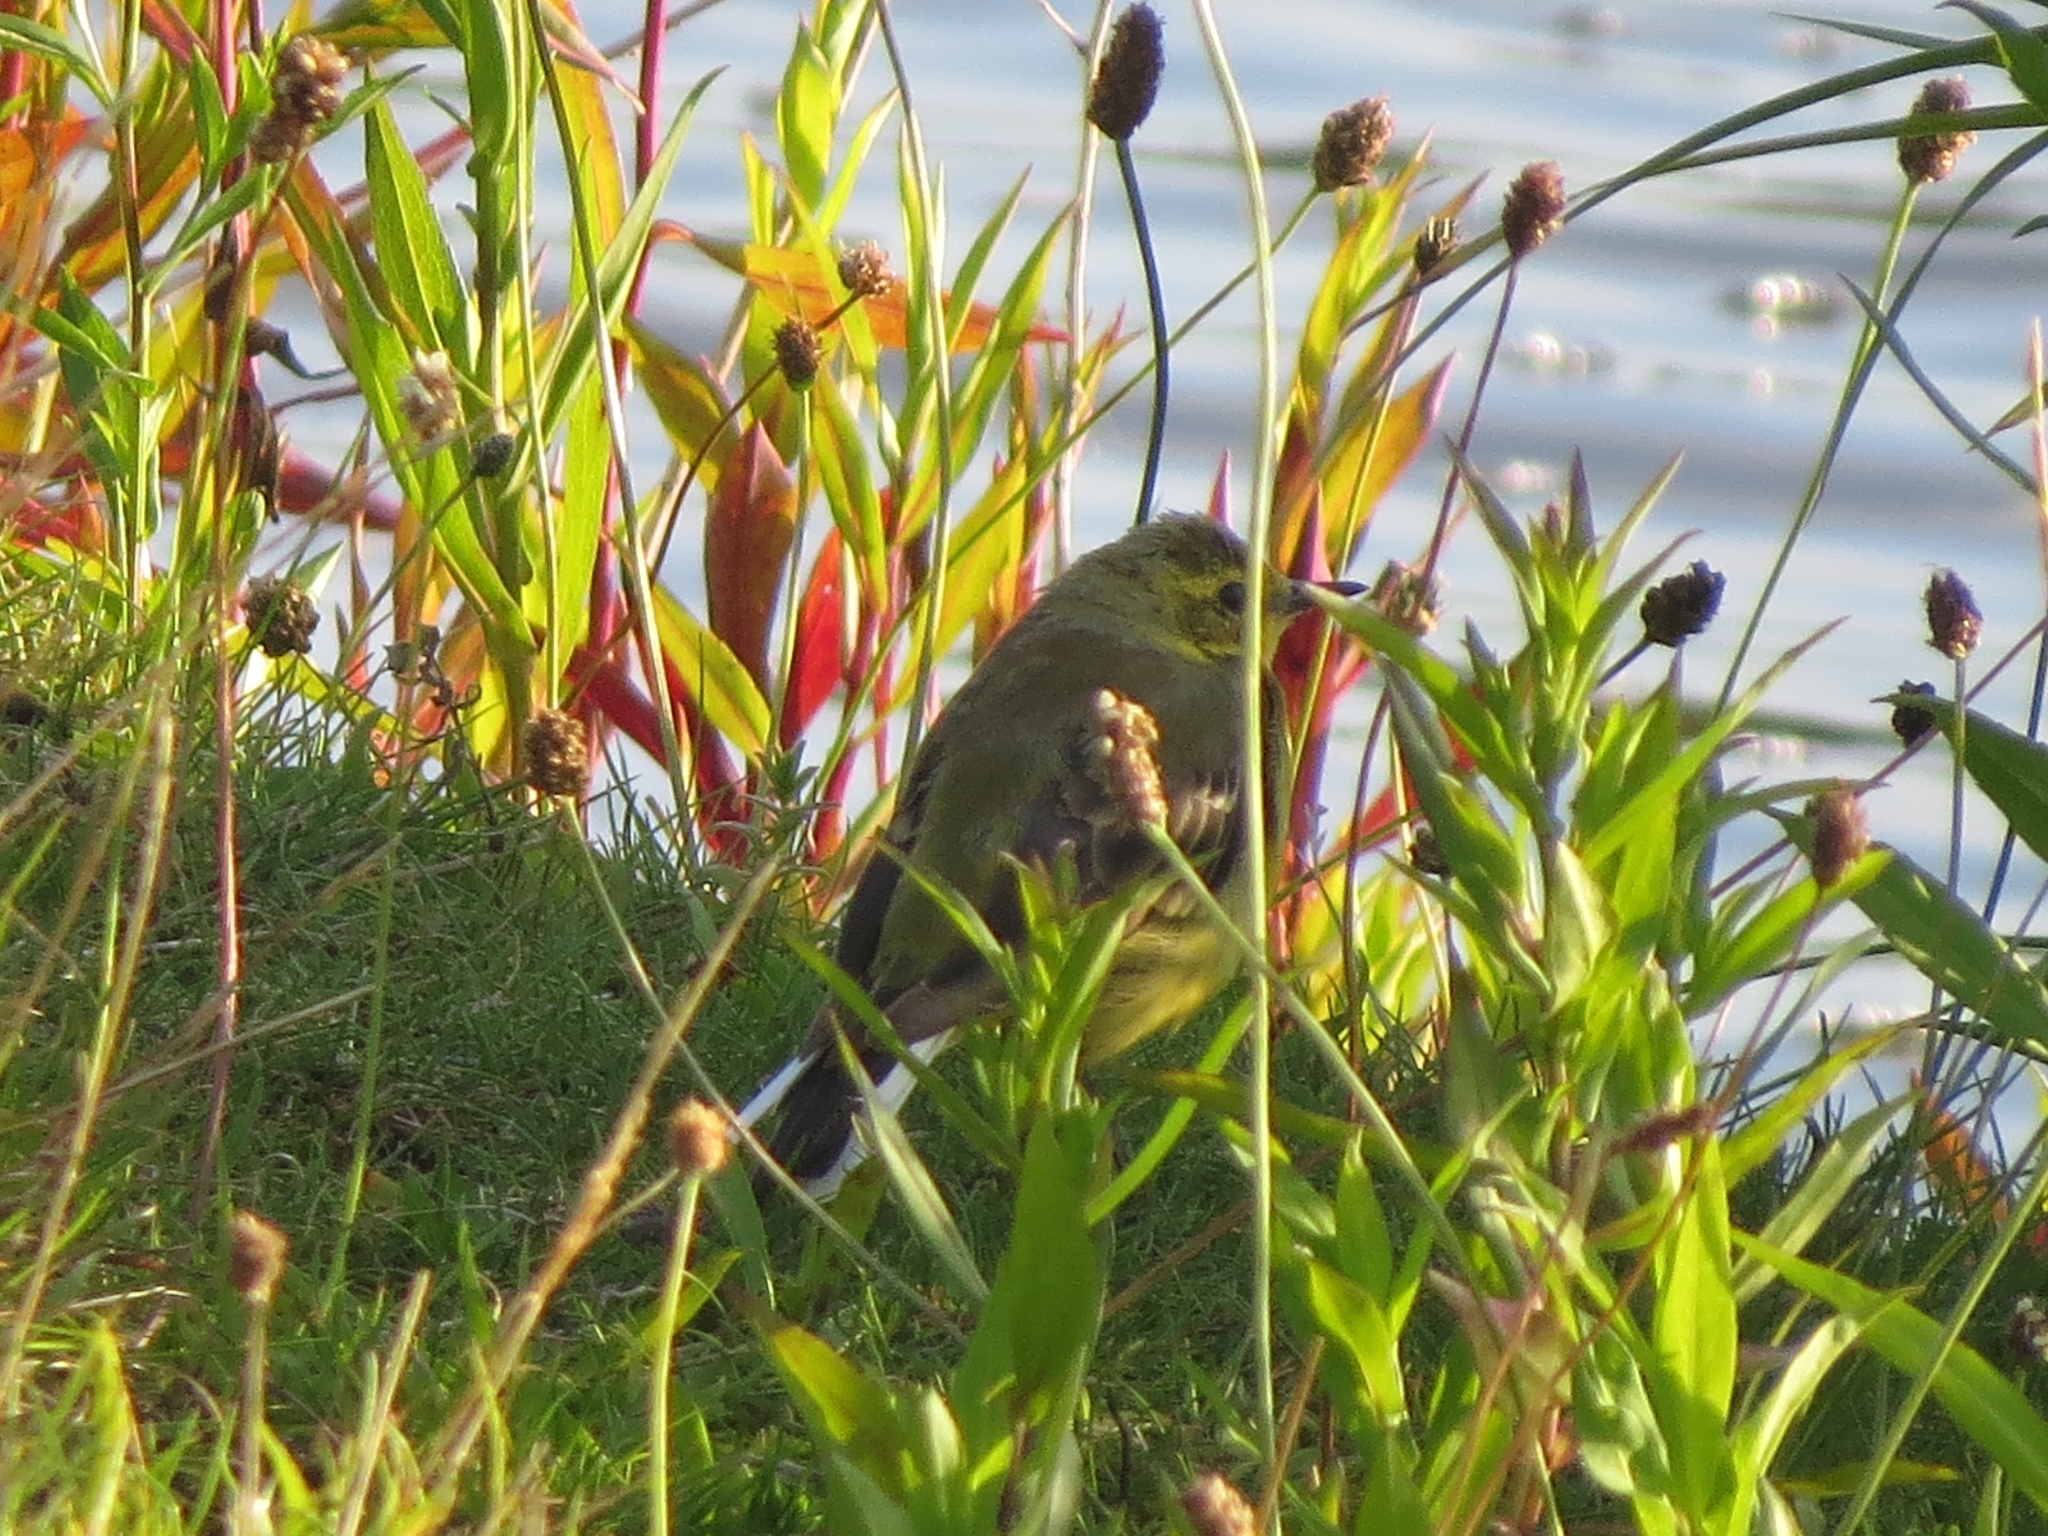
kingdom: Animalia
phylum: Chordata
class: Aves
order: Passeriformes
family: Motacillidae
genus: Motacilla
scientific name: Motacilla flava
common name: Western yellow wagtail
